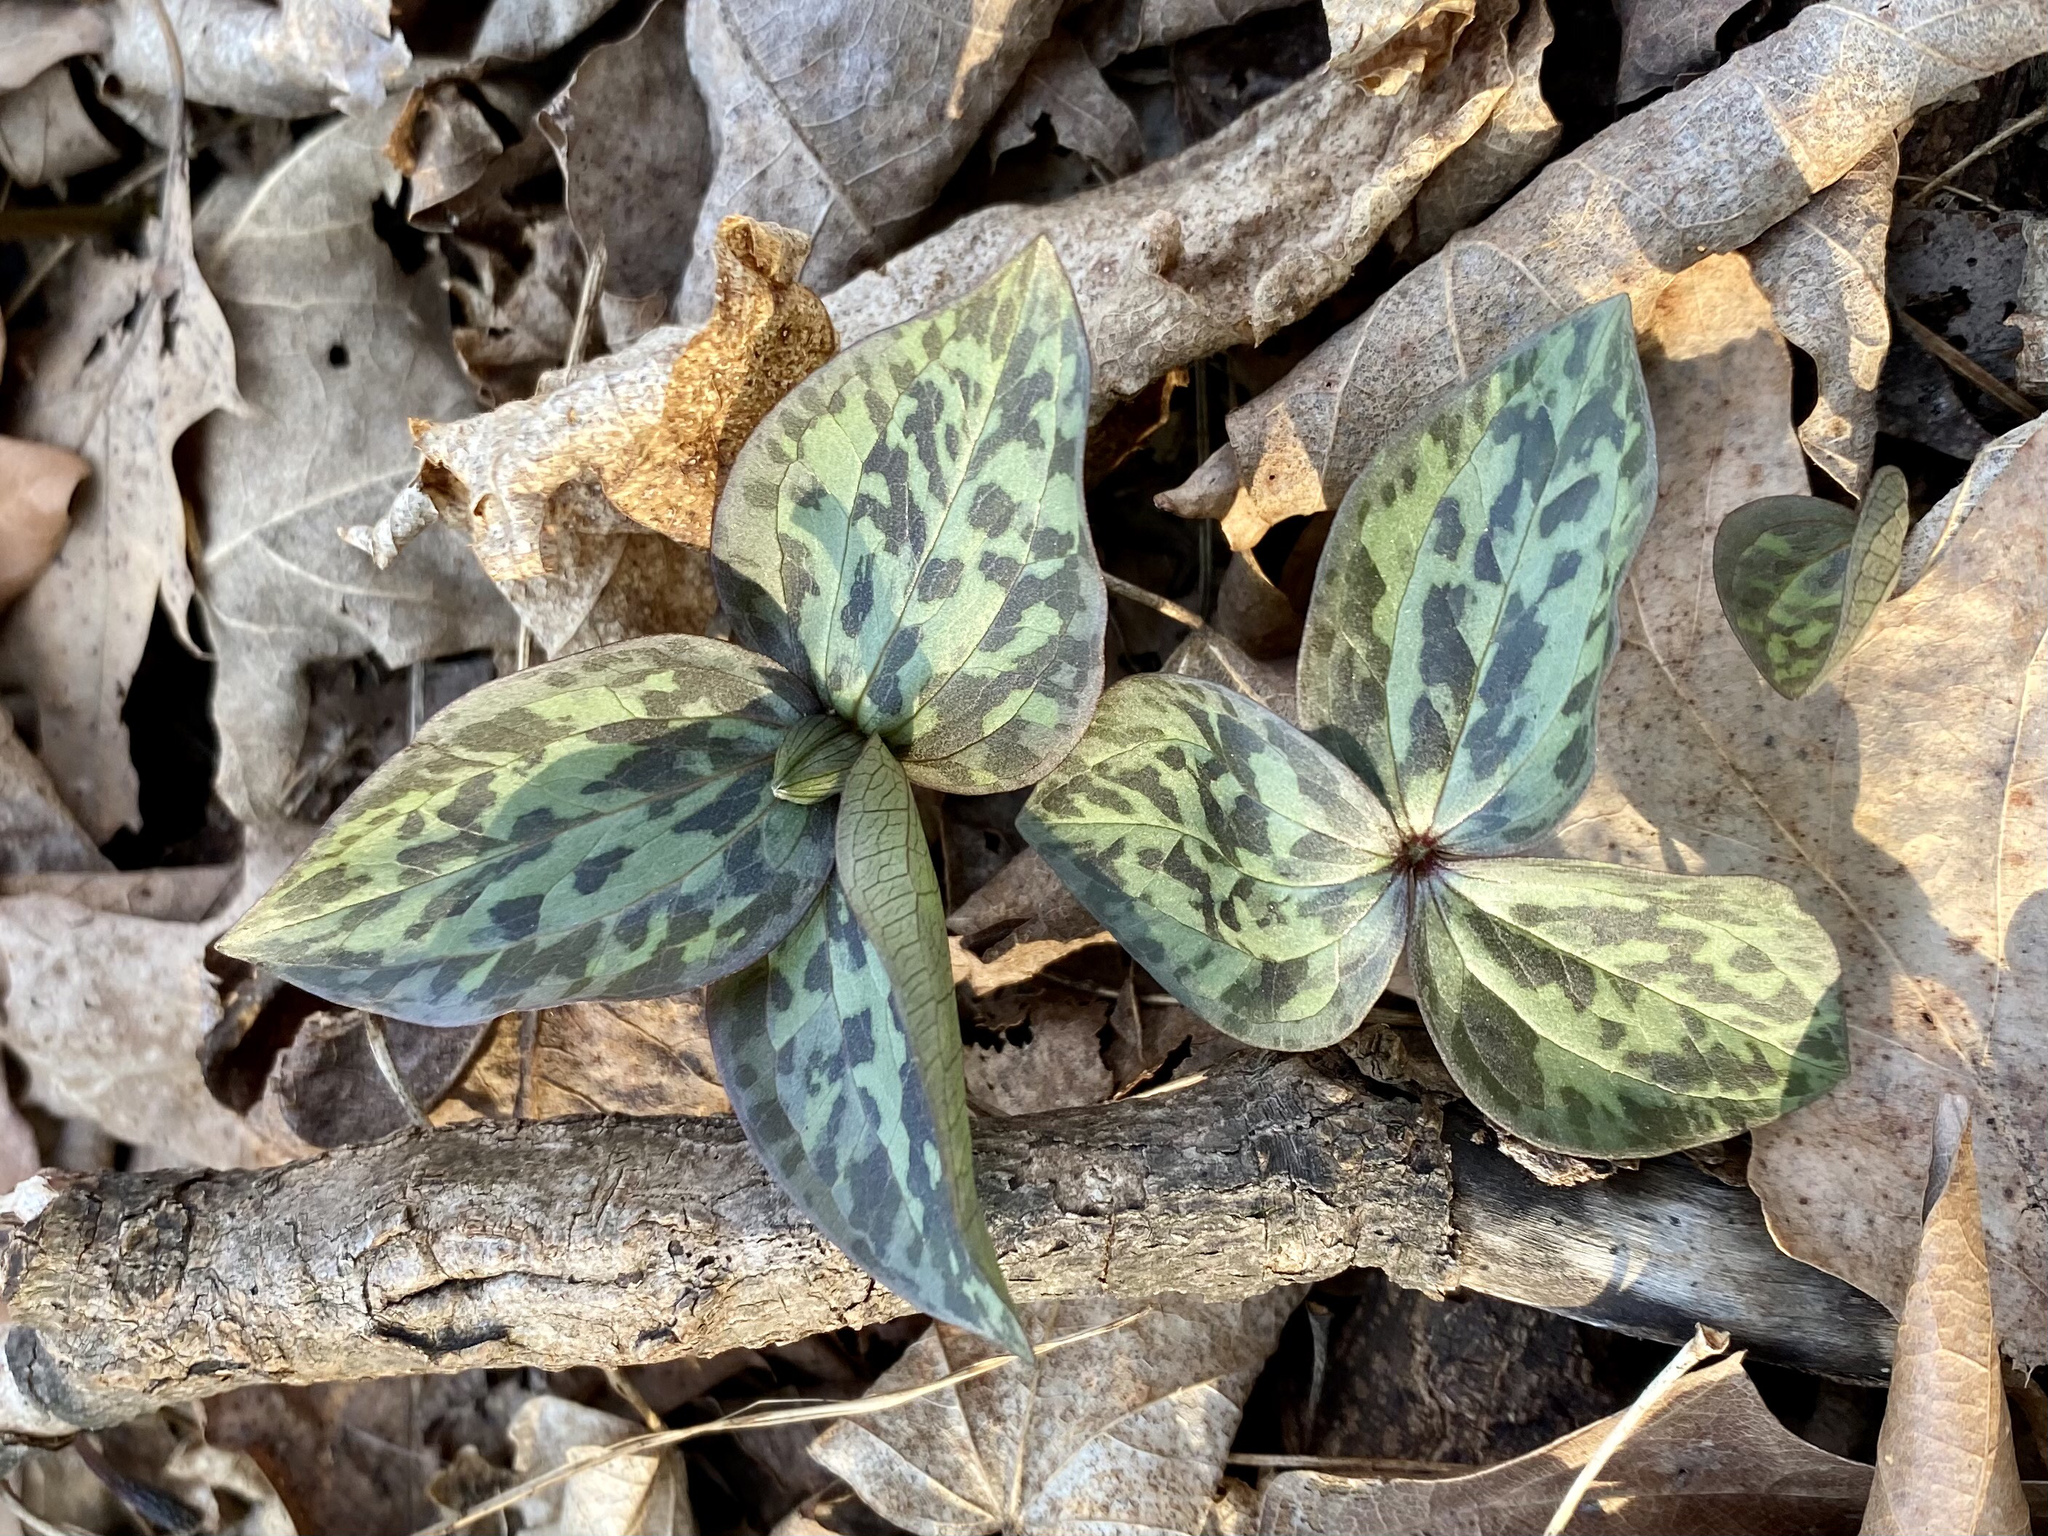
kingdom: Plantae
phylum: Tracheophyta
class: Liliopsida
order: Liliales
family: Melanthiaceae
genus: Trillium
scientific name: Trillium recurvatum
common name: Bloody butcher
